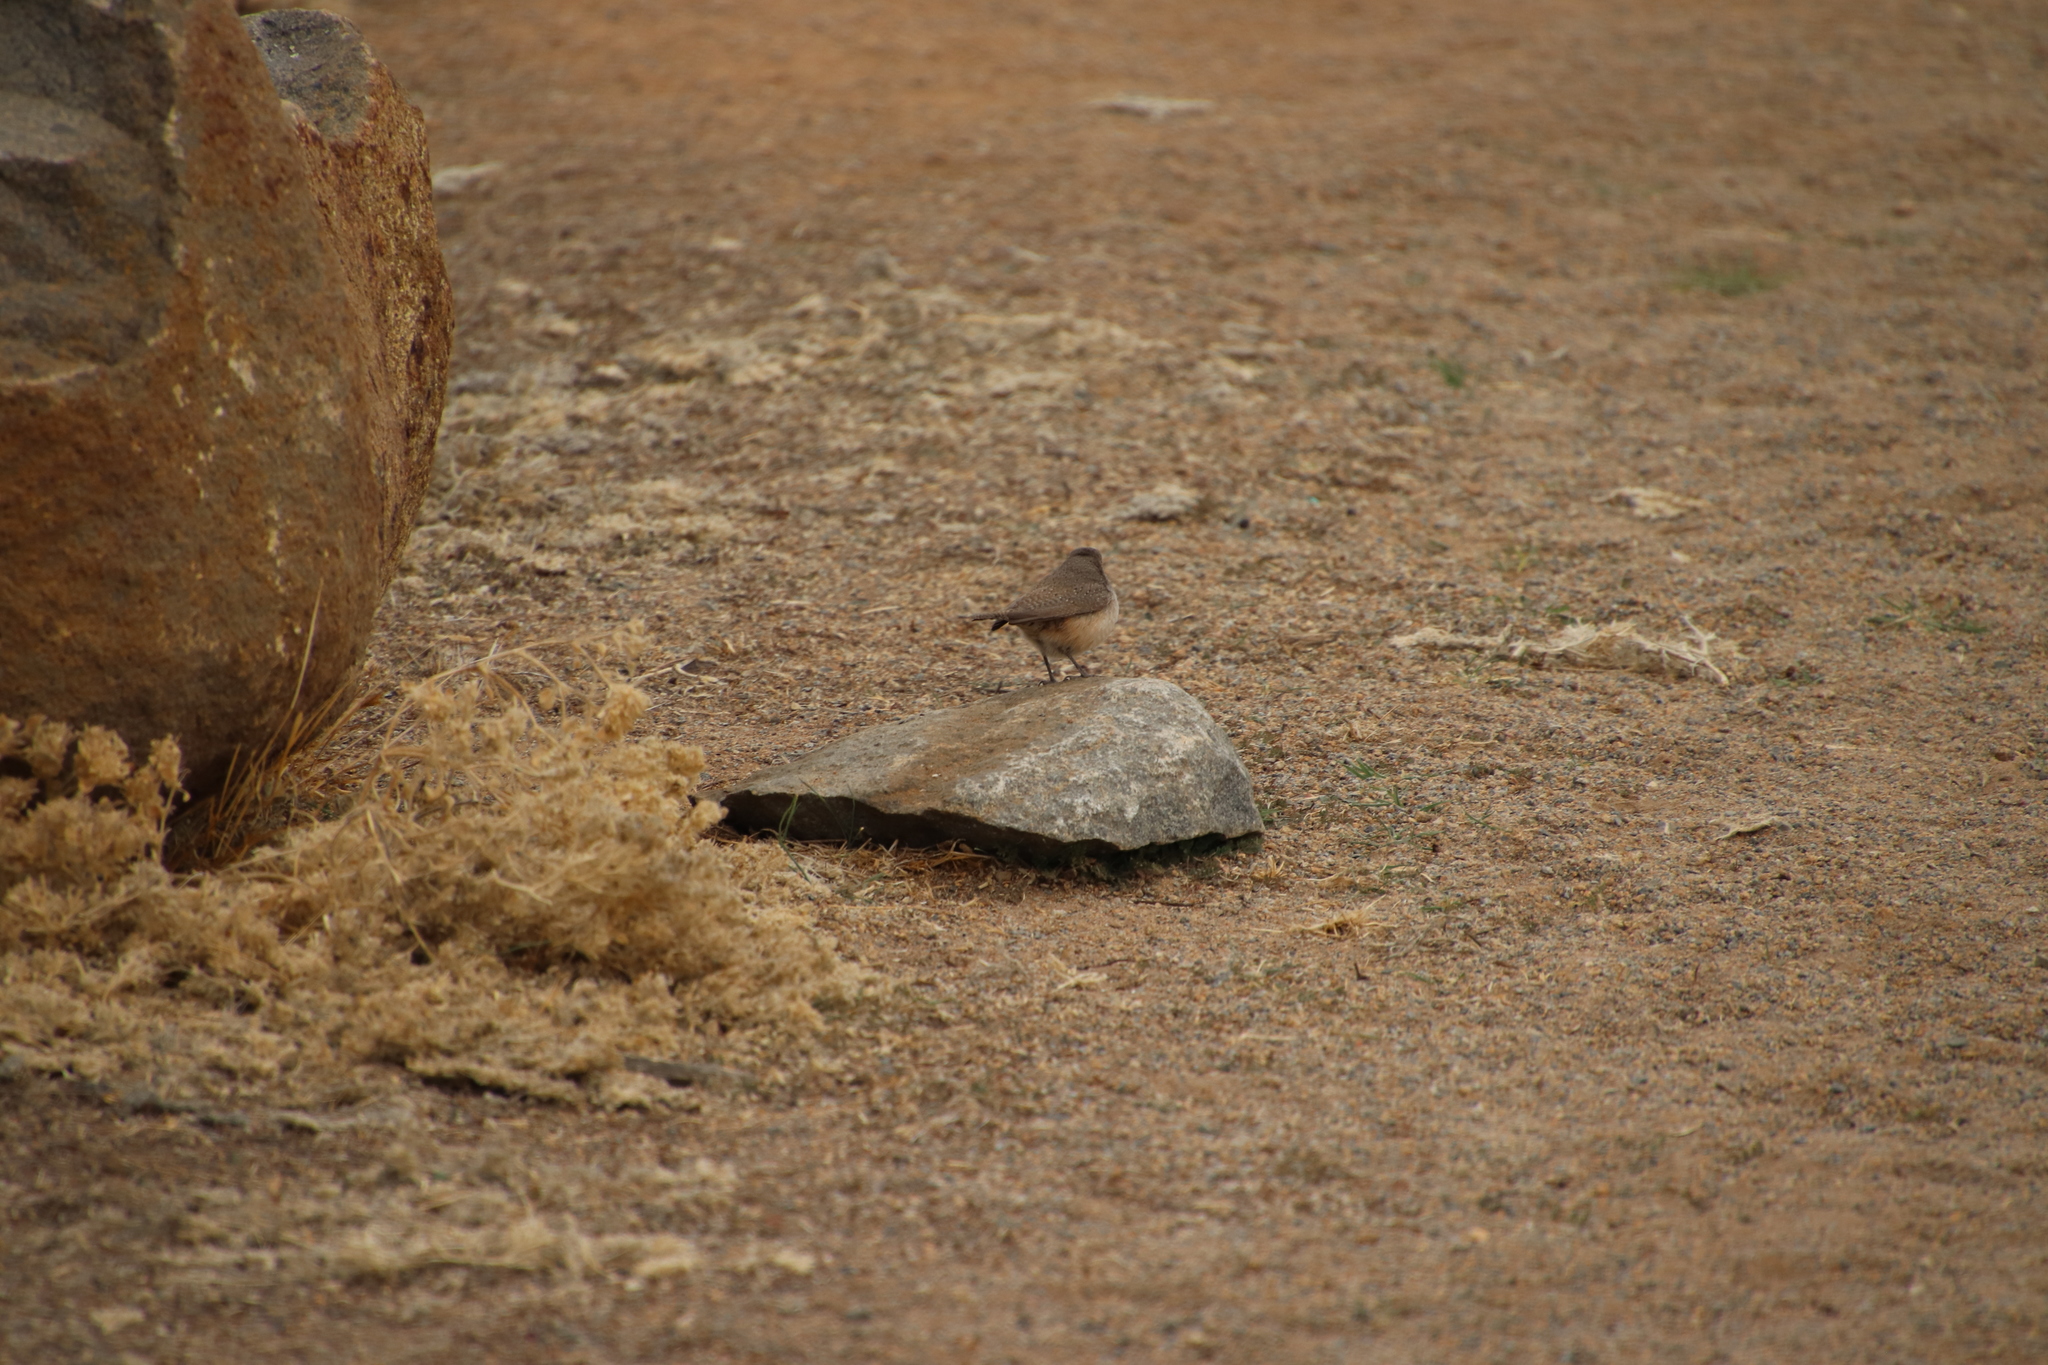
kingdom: Animalia
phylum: Chordata
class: Aves
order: Passeriformes
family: Troglodytidae
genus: Salpinctes
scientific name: Salpinctes obsoletus
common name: Rock wren
